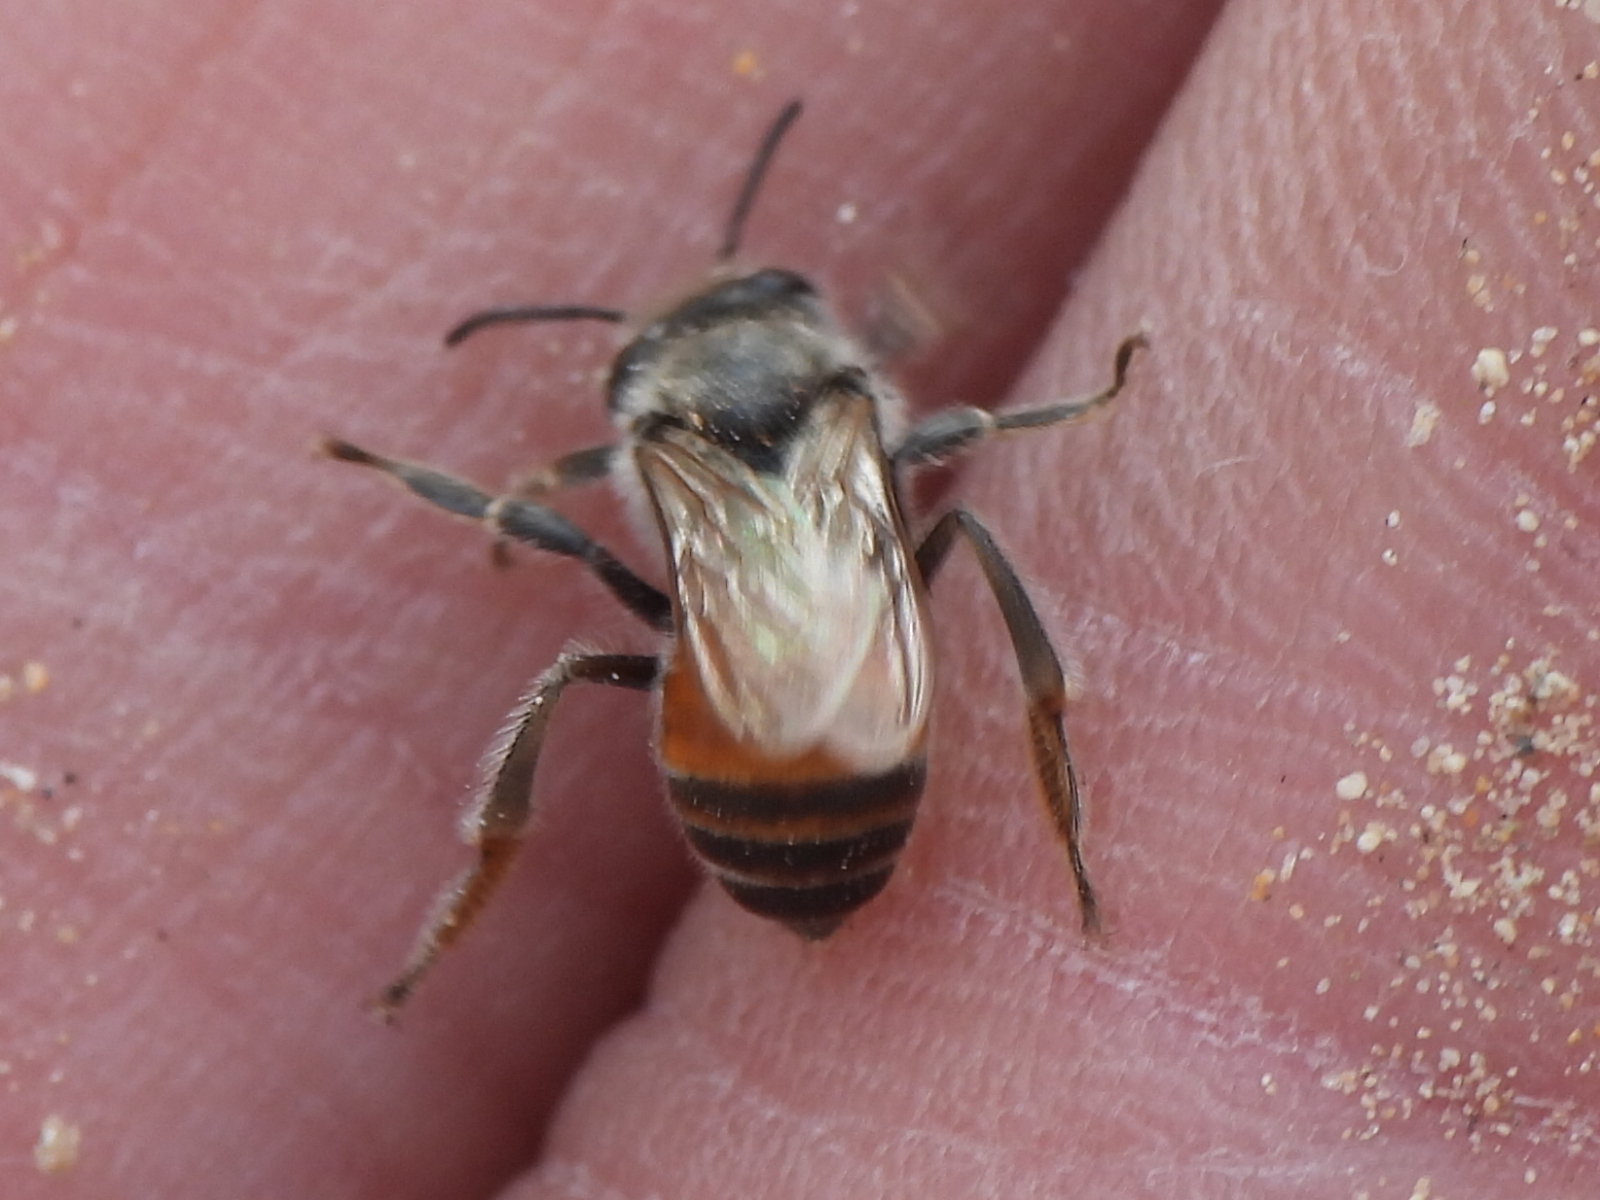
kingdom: Animalia
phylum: Arthropoda
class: Insecta
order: Hymenoptera
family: Apidae
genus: Apis
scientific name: Apis florea
